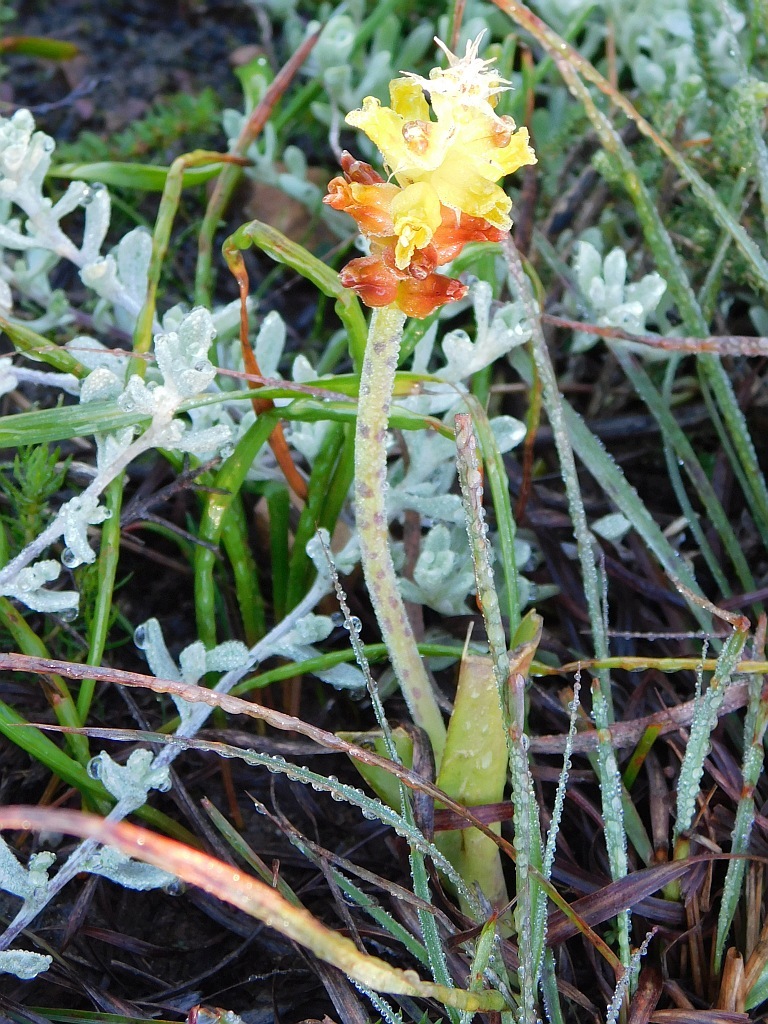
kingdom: Plantae
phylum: Tracheophyta
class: Liliopsida
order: Asparagales
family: Asparagaceae
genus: Lachenalia
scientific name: Lachenalia lutea
